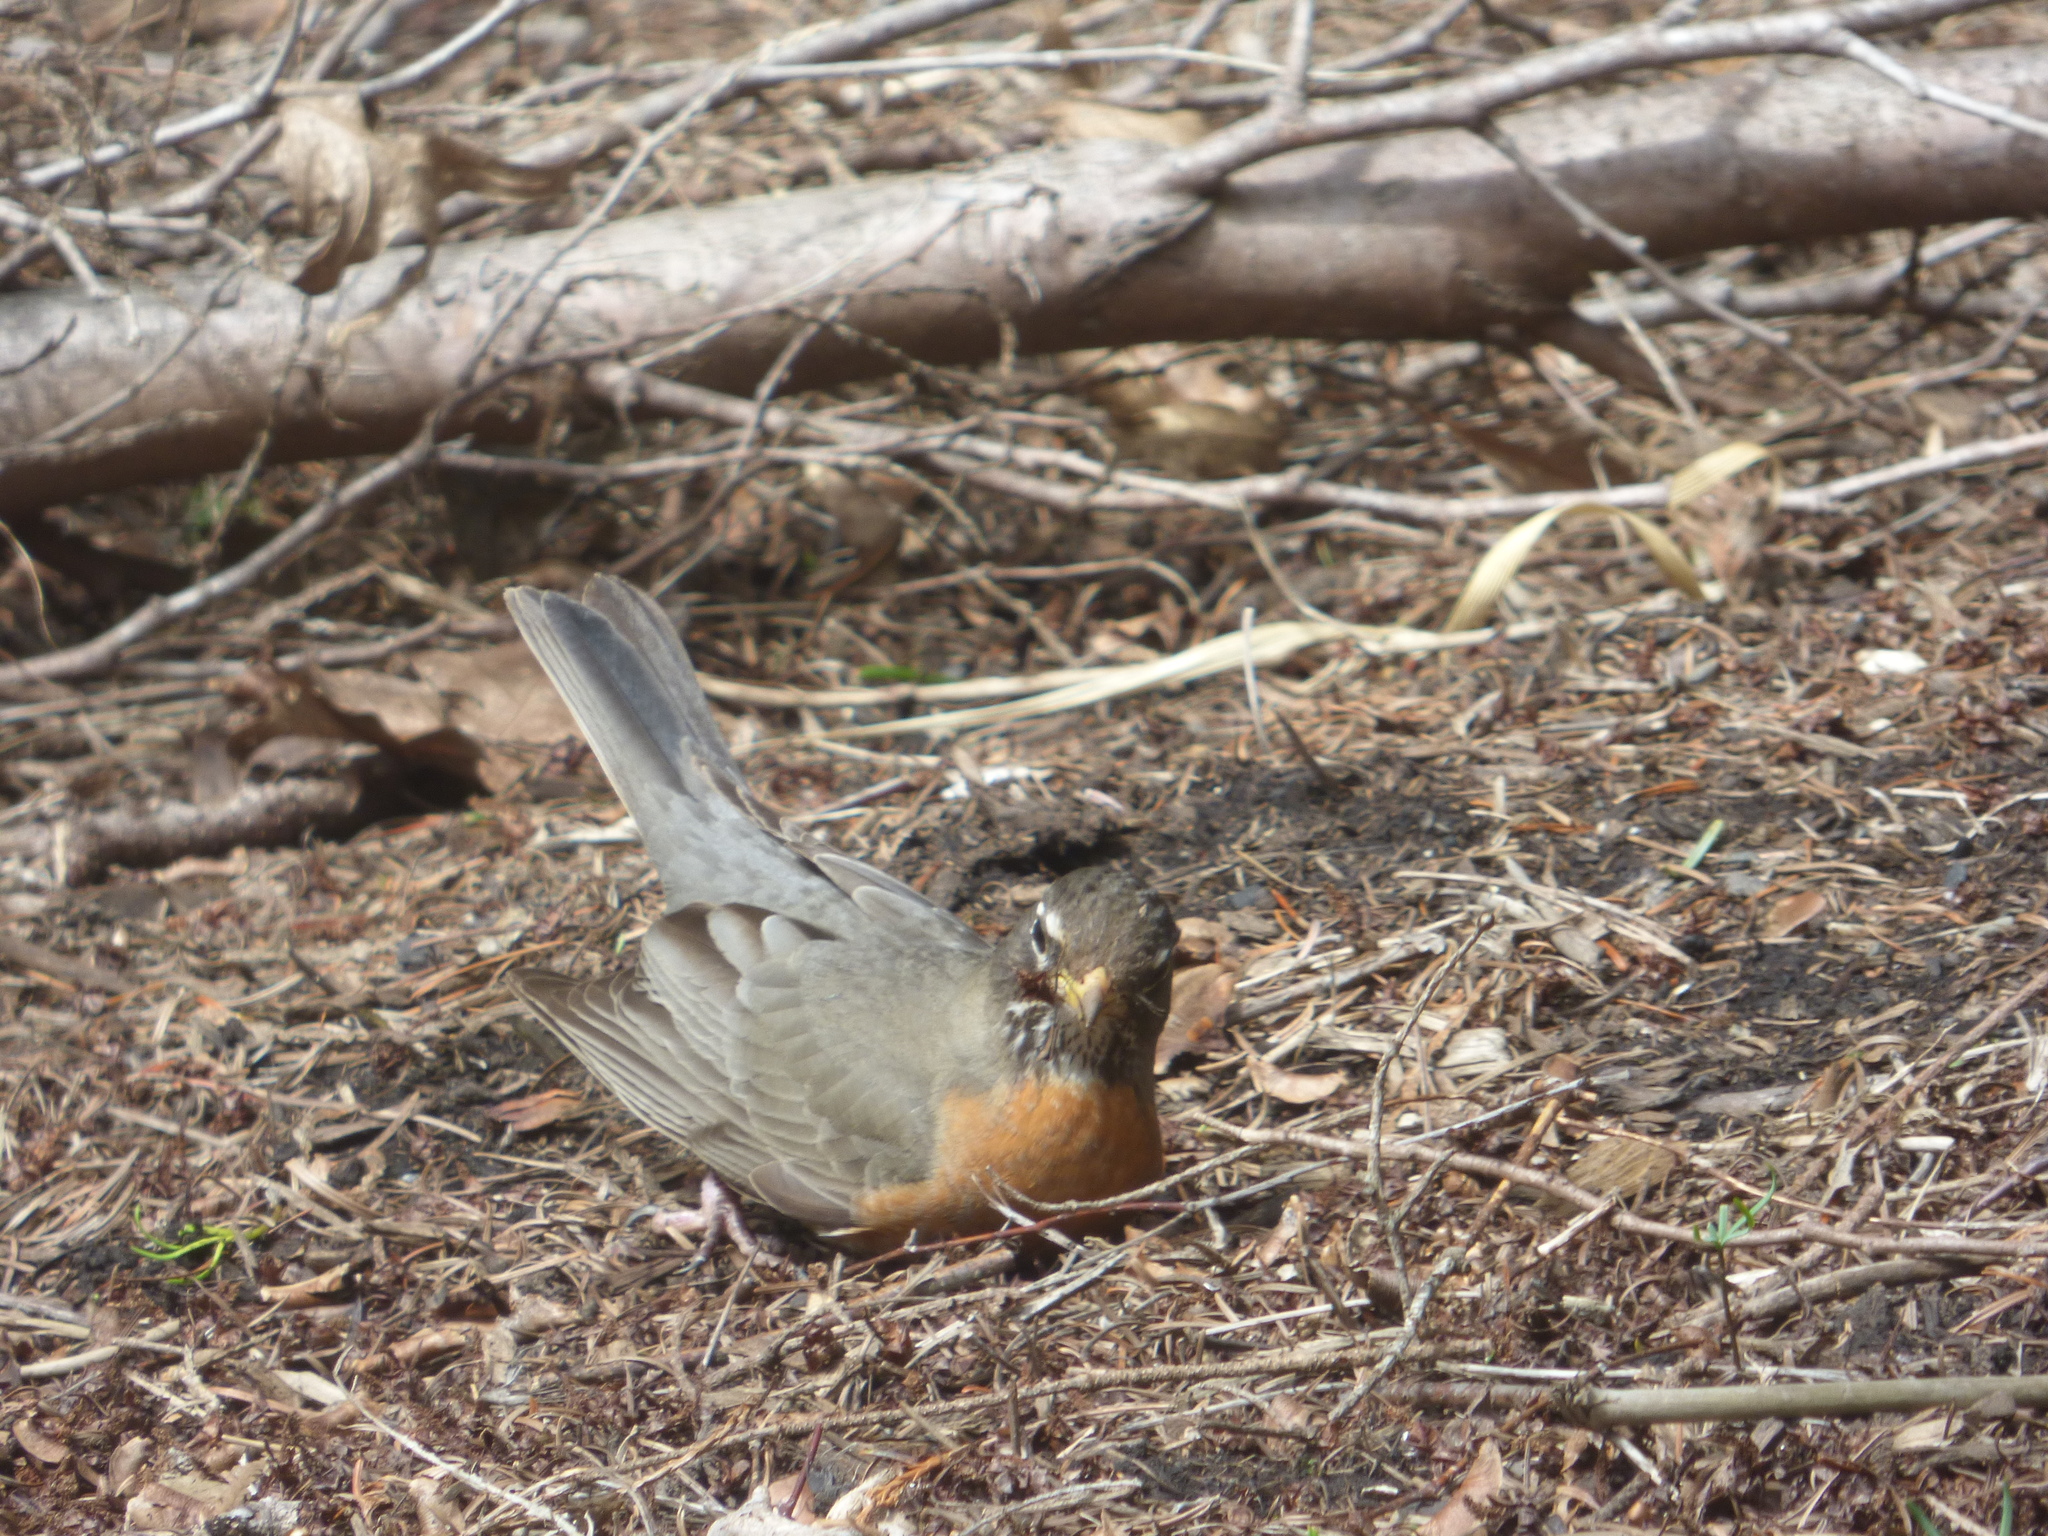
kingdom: Animalia
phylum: Chordata
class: Aves
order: Passeriformes
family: Turdidae
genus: Turdus
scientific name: Turdus migratorius
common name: American robin
